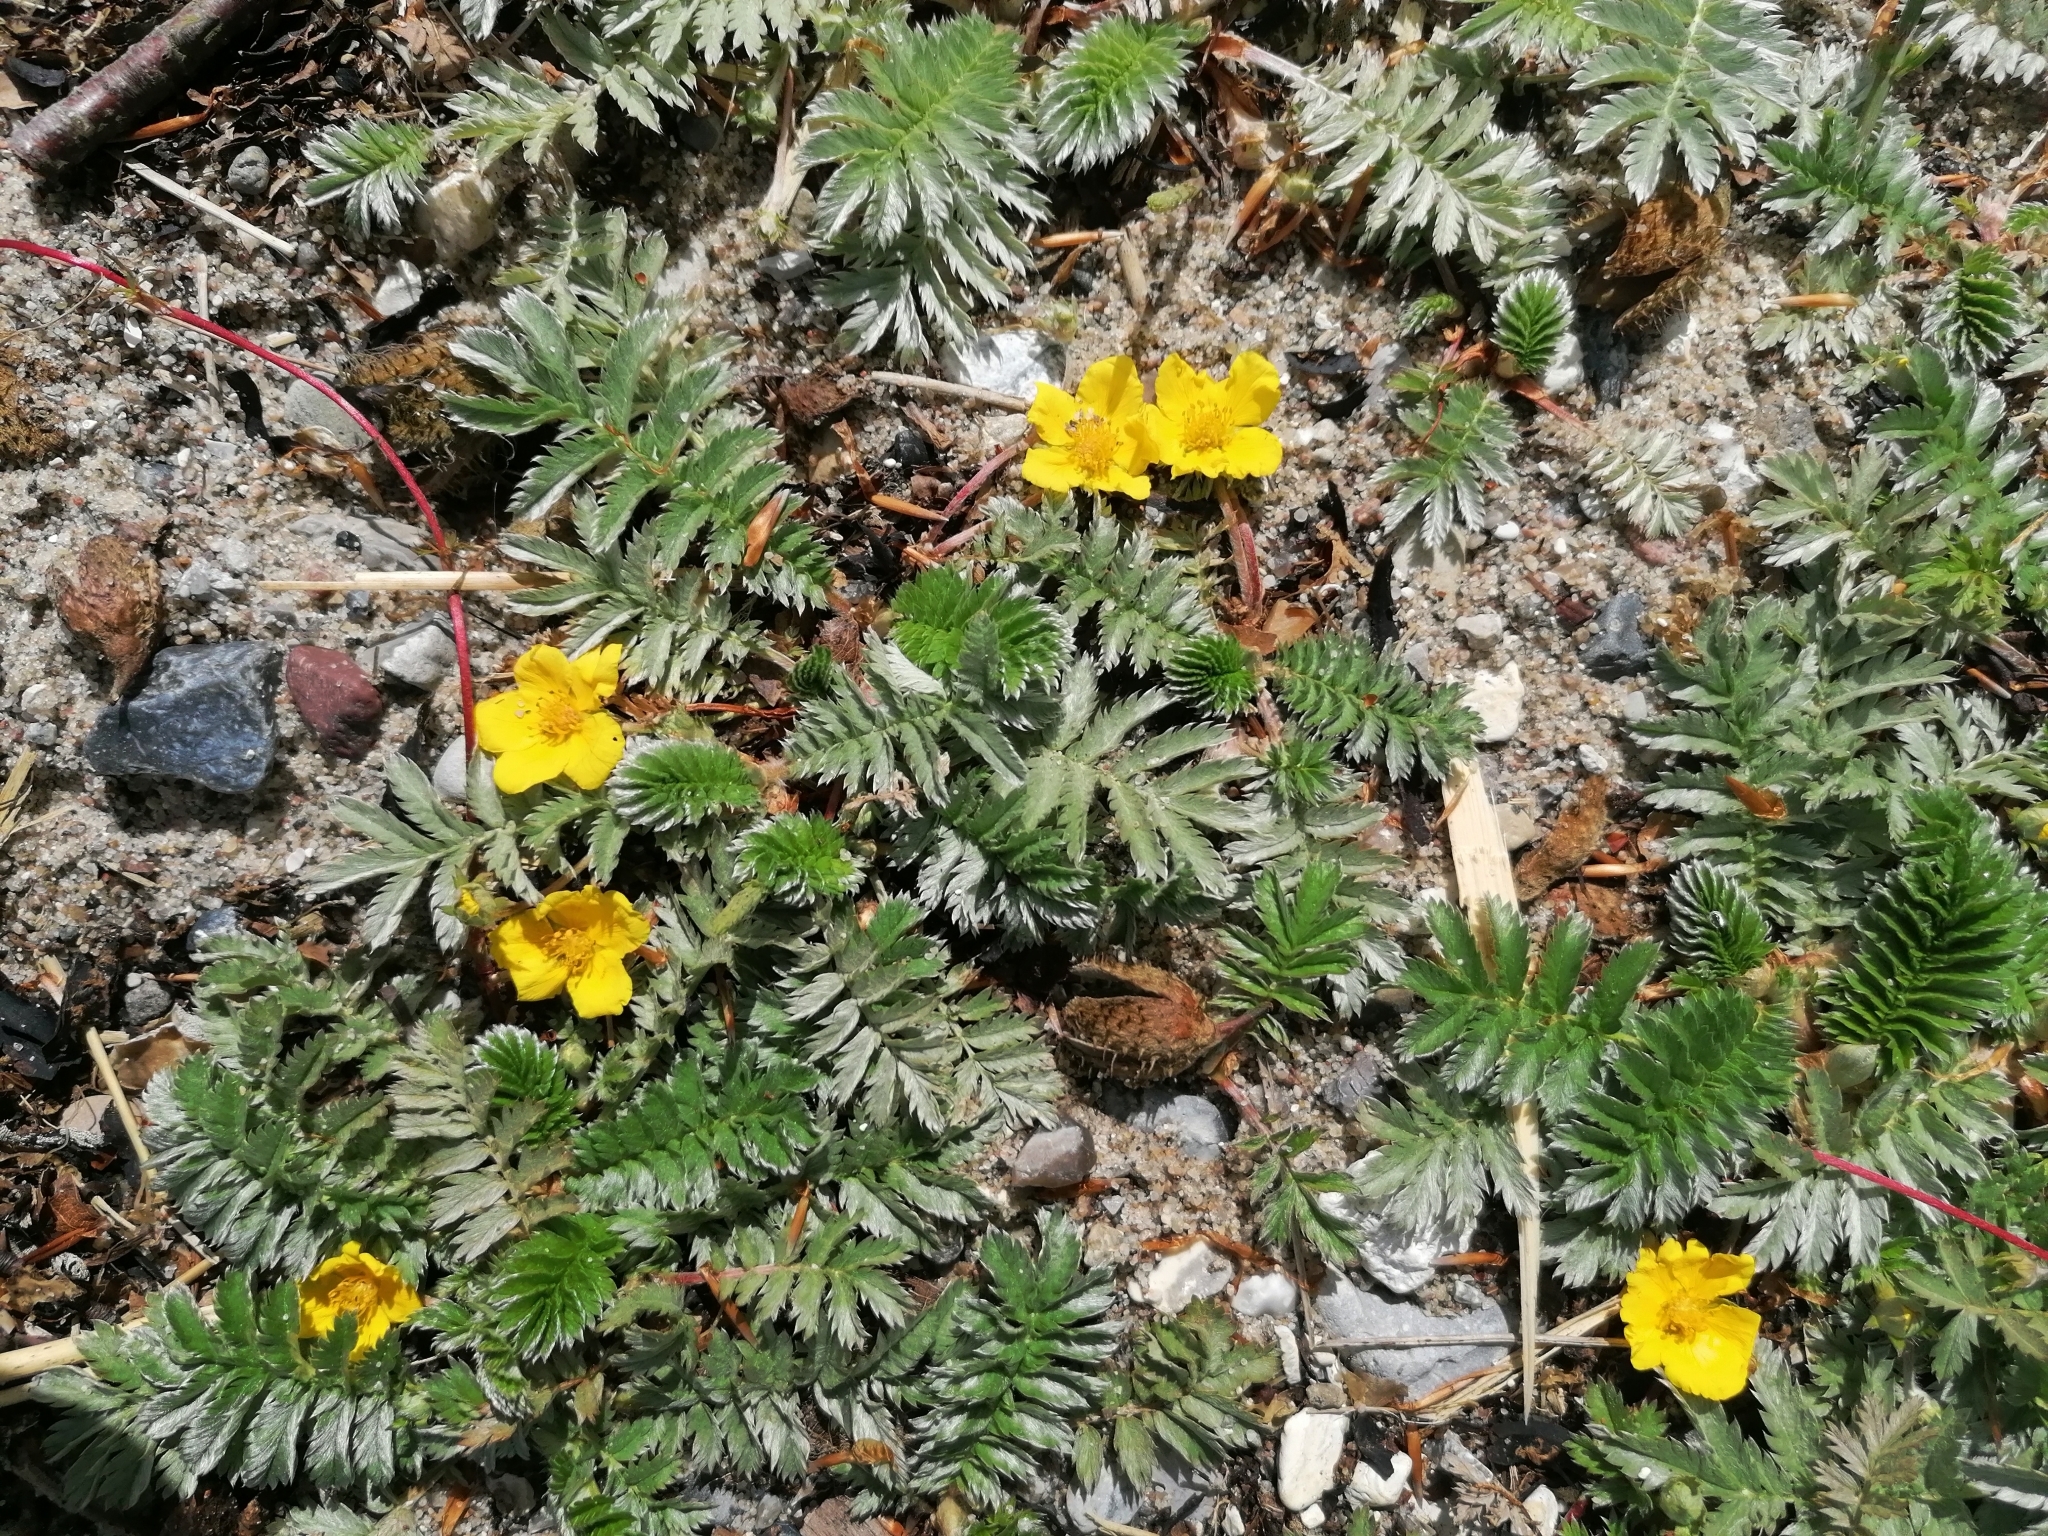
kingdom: Plantae
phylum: Tracheophyta
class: Magnoliopsida
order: Rosales
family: Rosaceae
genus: Argentina
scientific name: Argentina anserina
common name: Common silverweed
